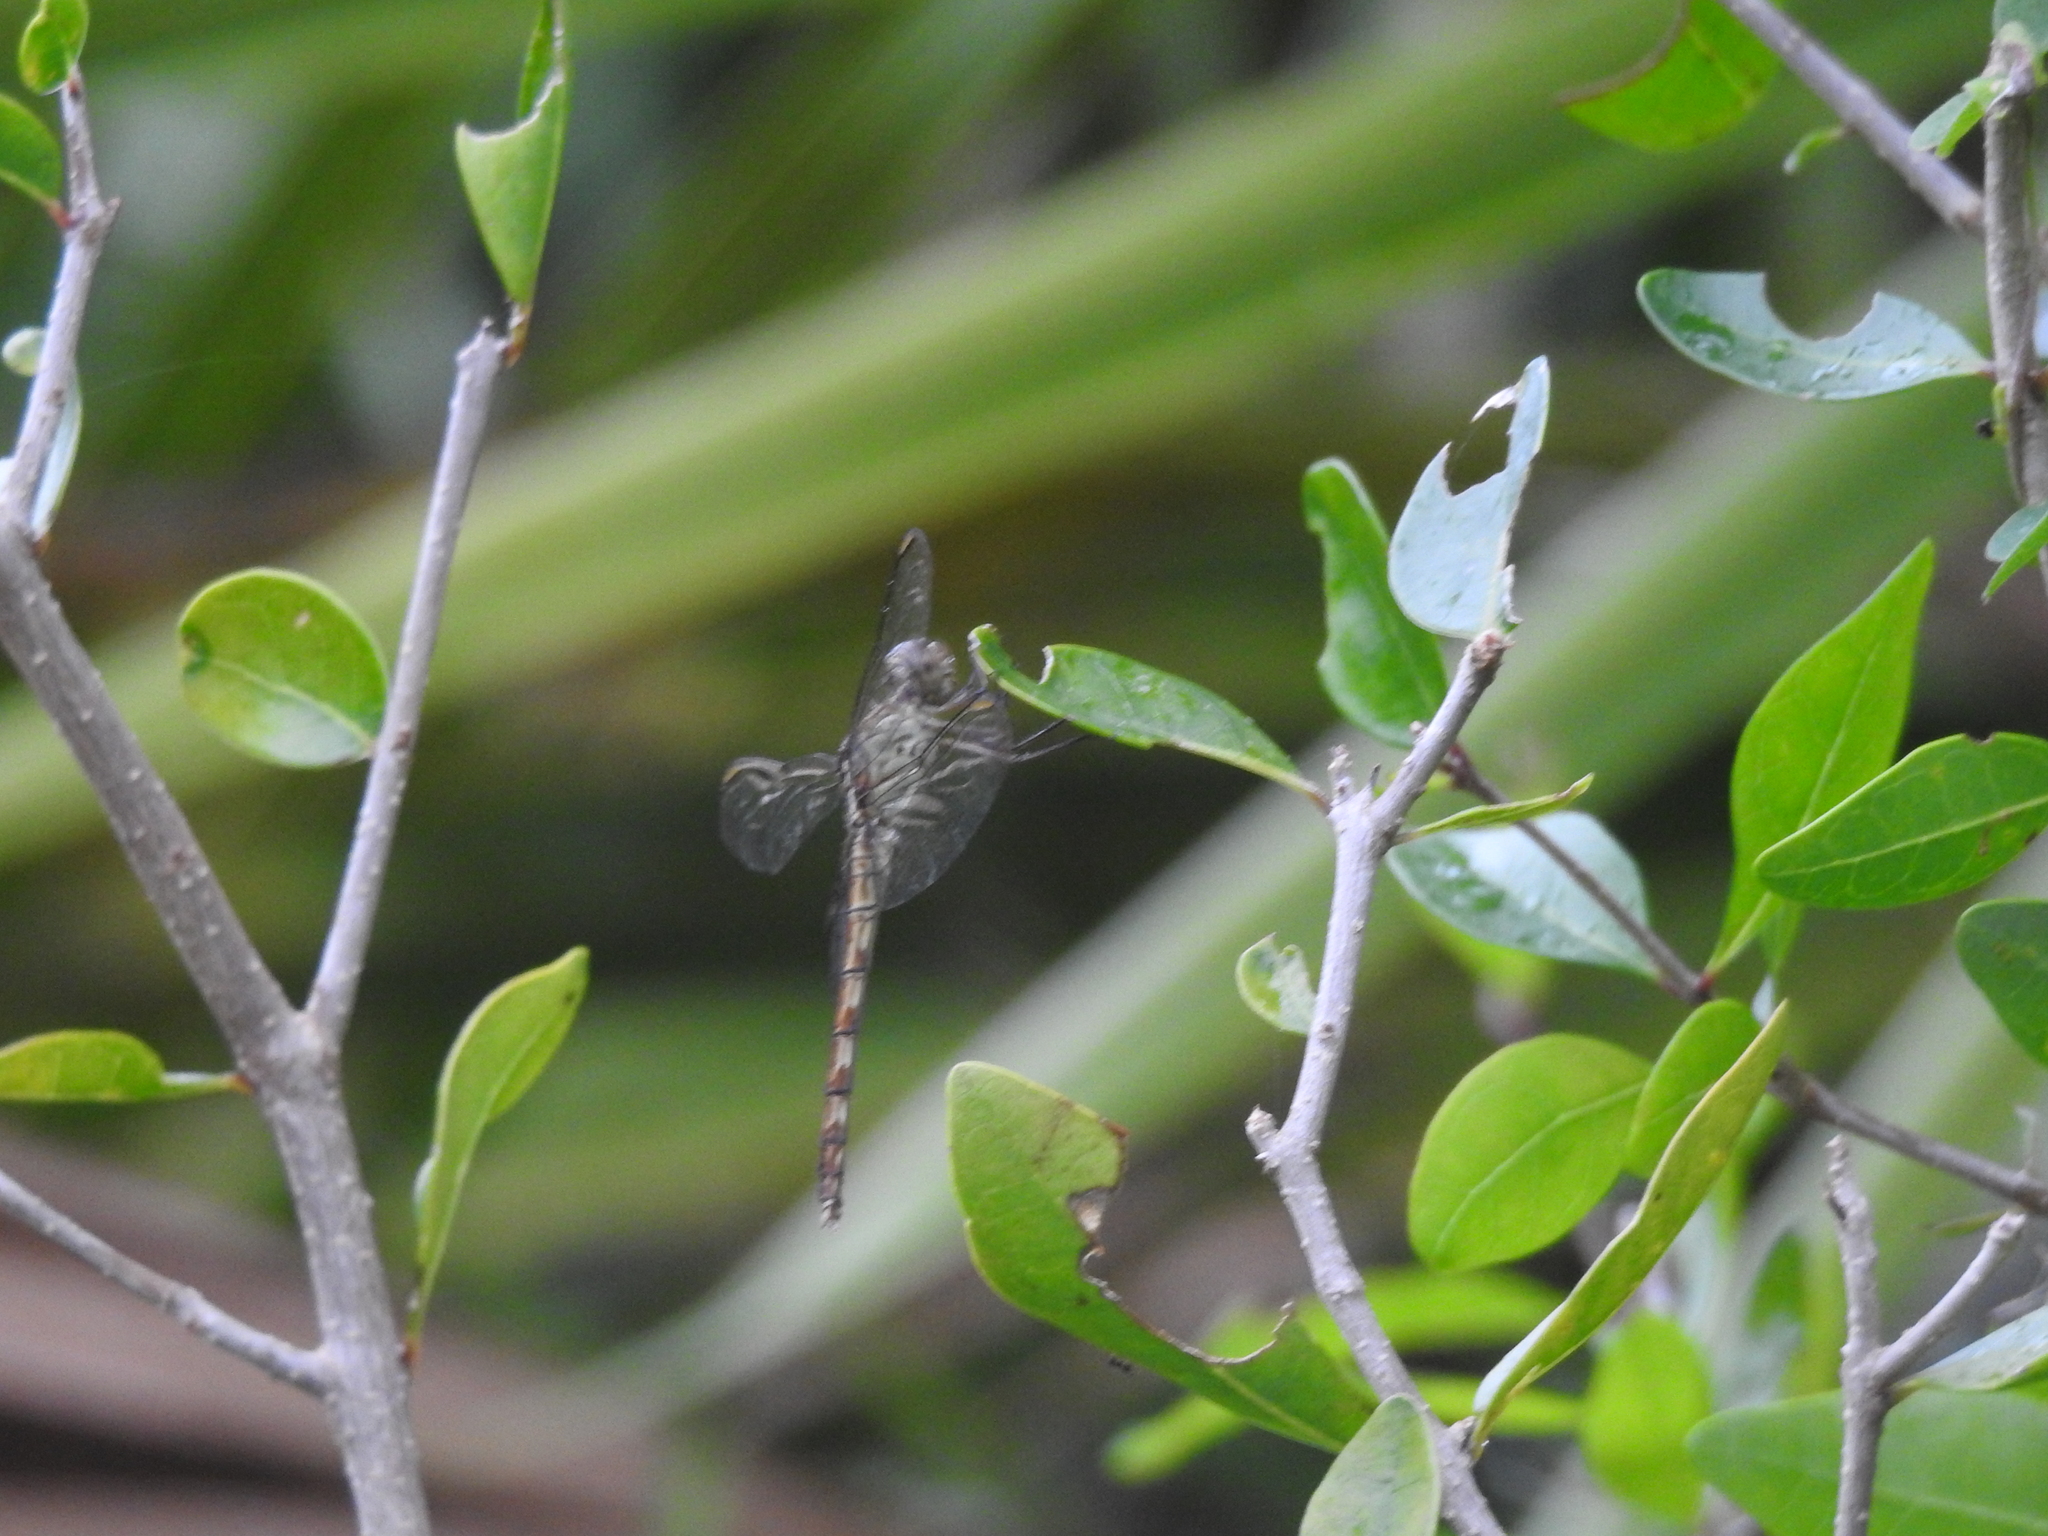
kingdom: Animalia
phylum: Arthropoda
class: Insecta
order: Odonata
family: Libellulidae
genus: Erythrodiplax
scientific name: Erythrodiplax umbrata
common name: Band-winged dragonlet
